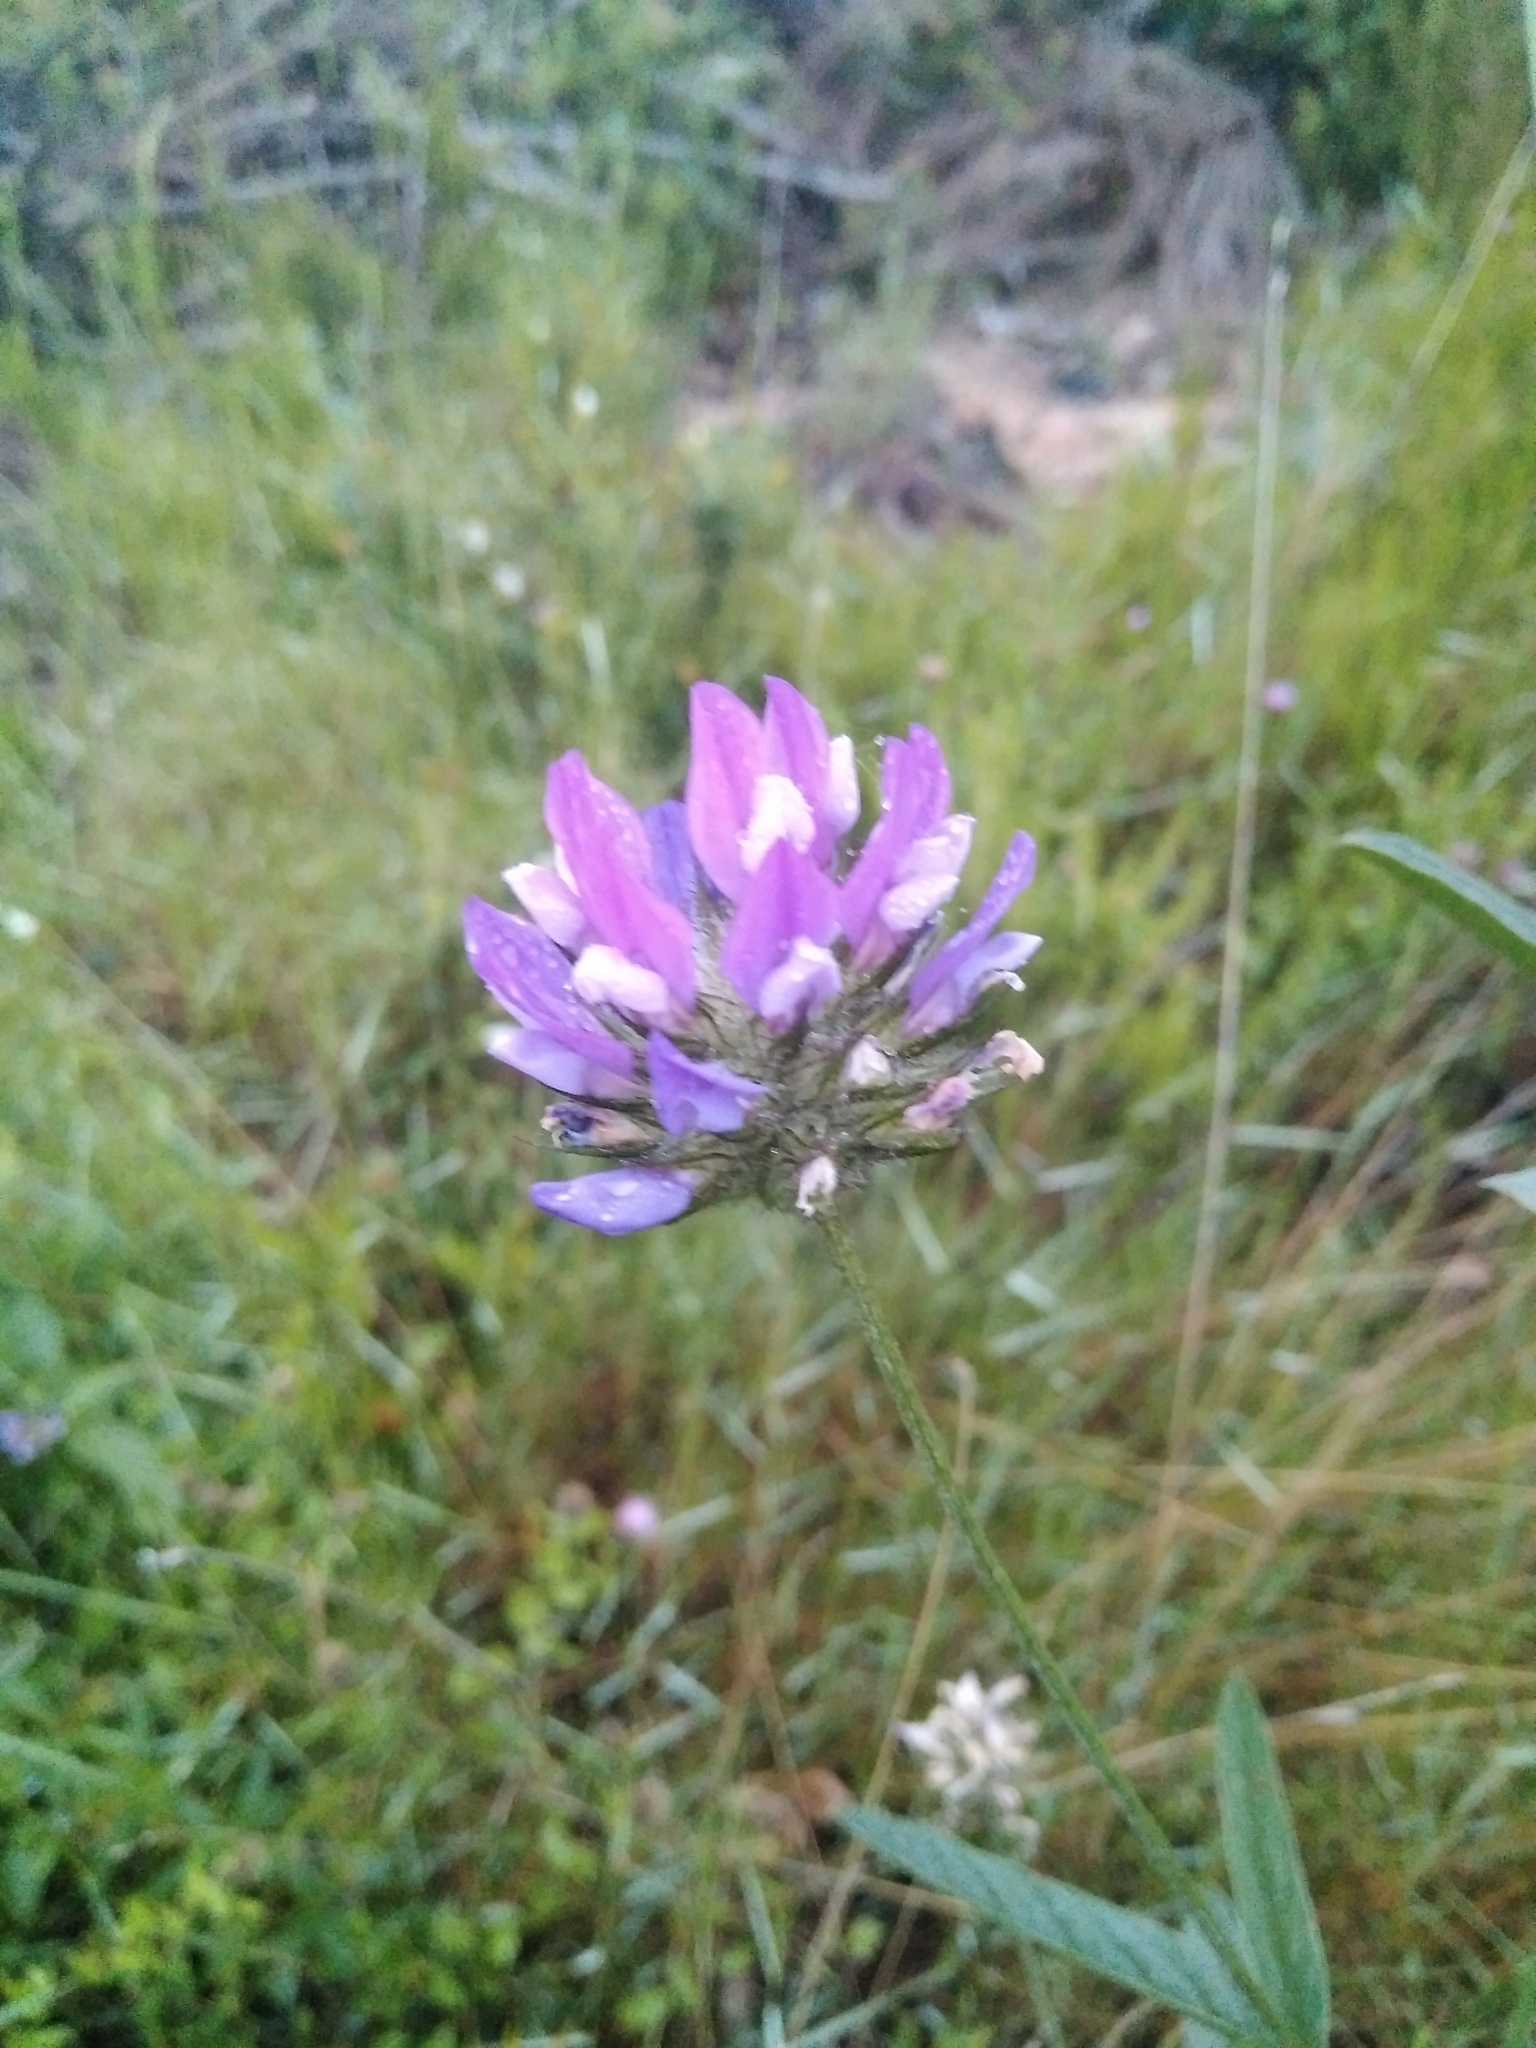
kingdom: Plantae
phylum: Tracheophyta
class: Magnoliopsida
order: Fabales
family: Fabaceae
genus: Bituminaria
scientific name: Bituminaria bituminosa
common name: Arabian pea
